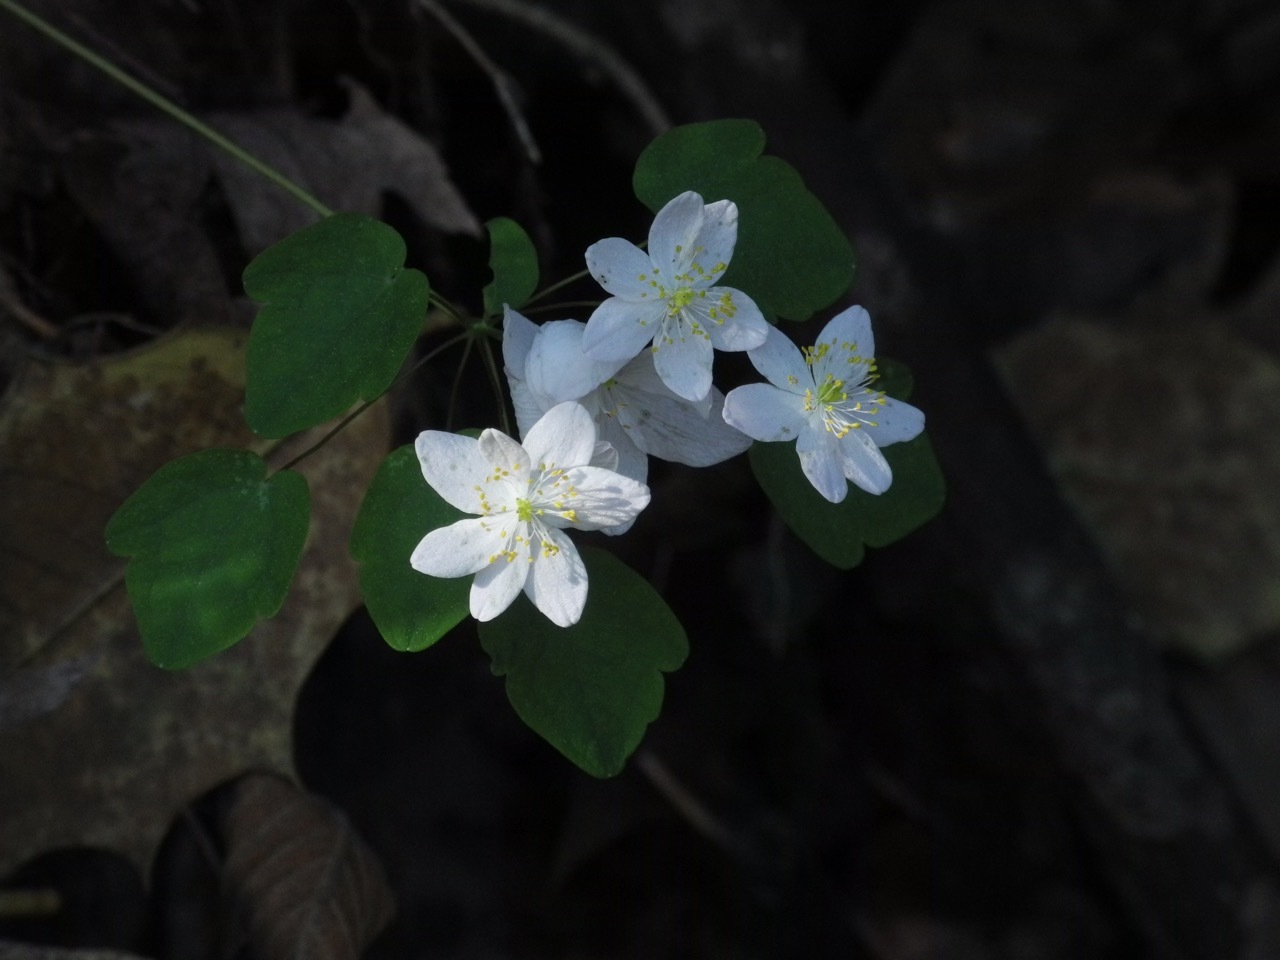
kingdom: Plantae
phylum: Tracheophyta
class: Magnoliopsida
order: Ranunculales
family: Ranunculaceae
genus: Thalictrum
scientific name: Thalictrum thalictroides
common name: Rue-anemone
